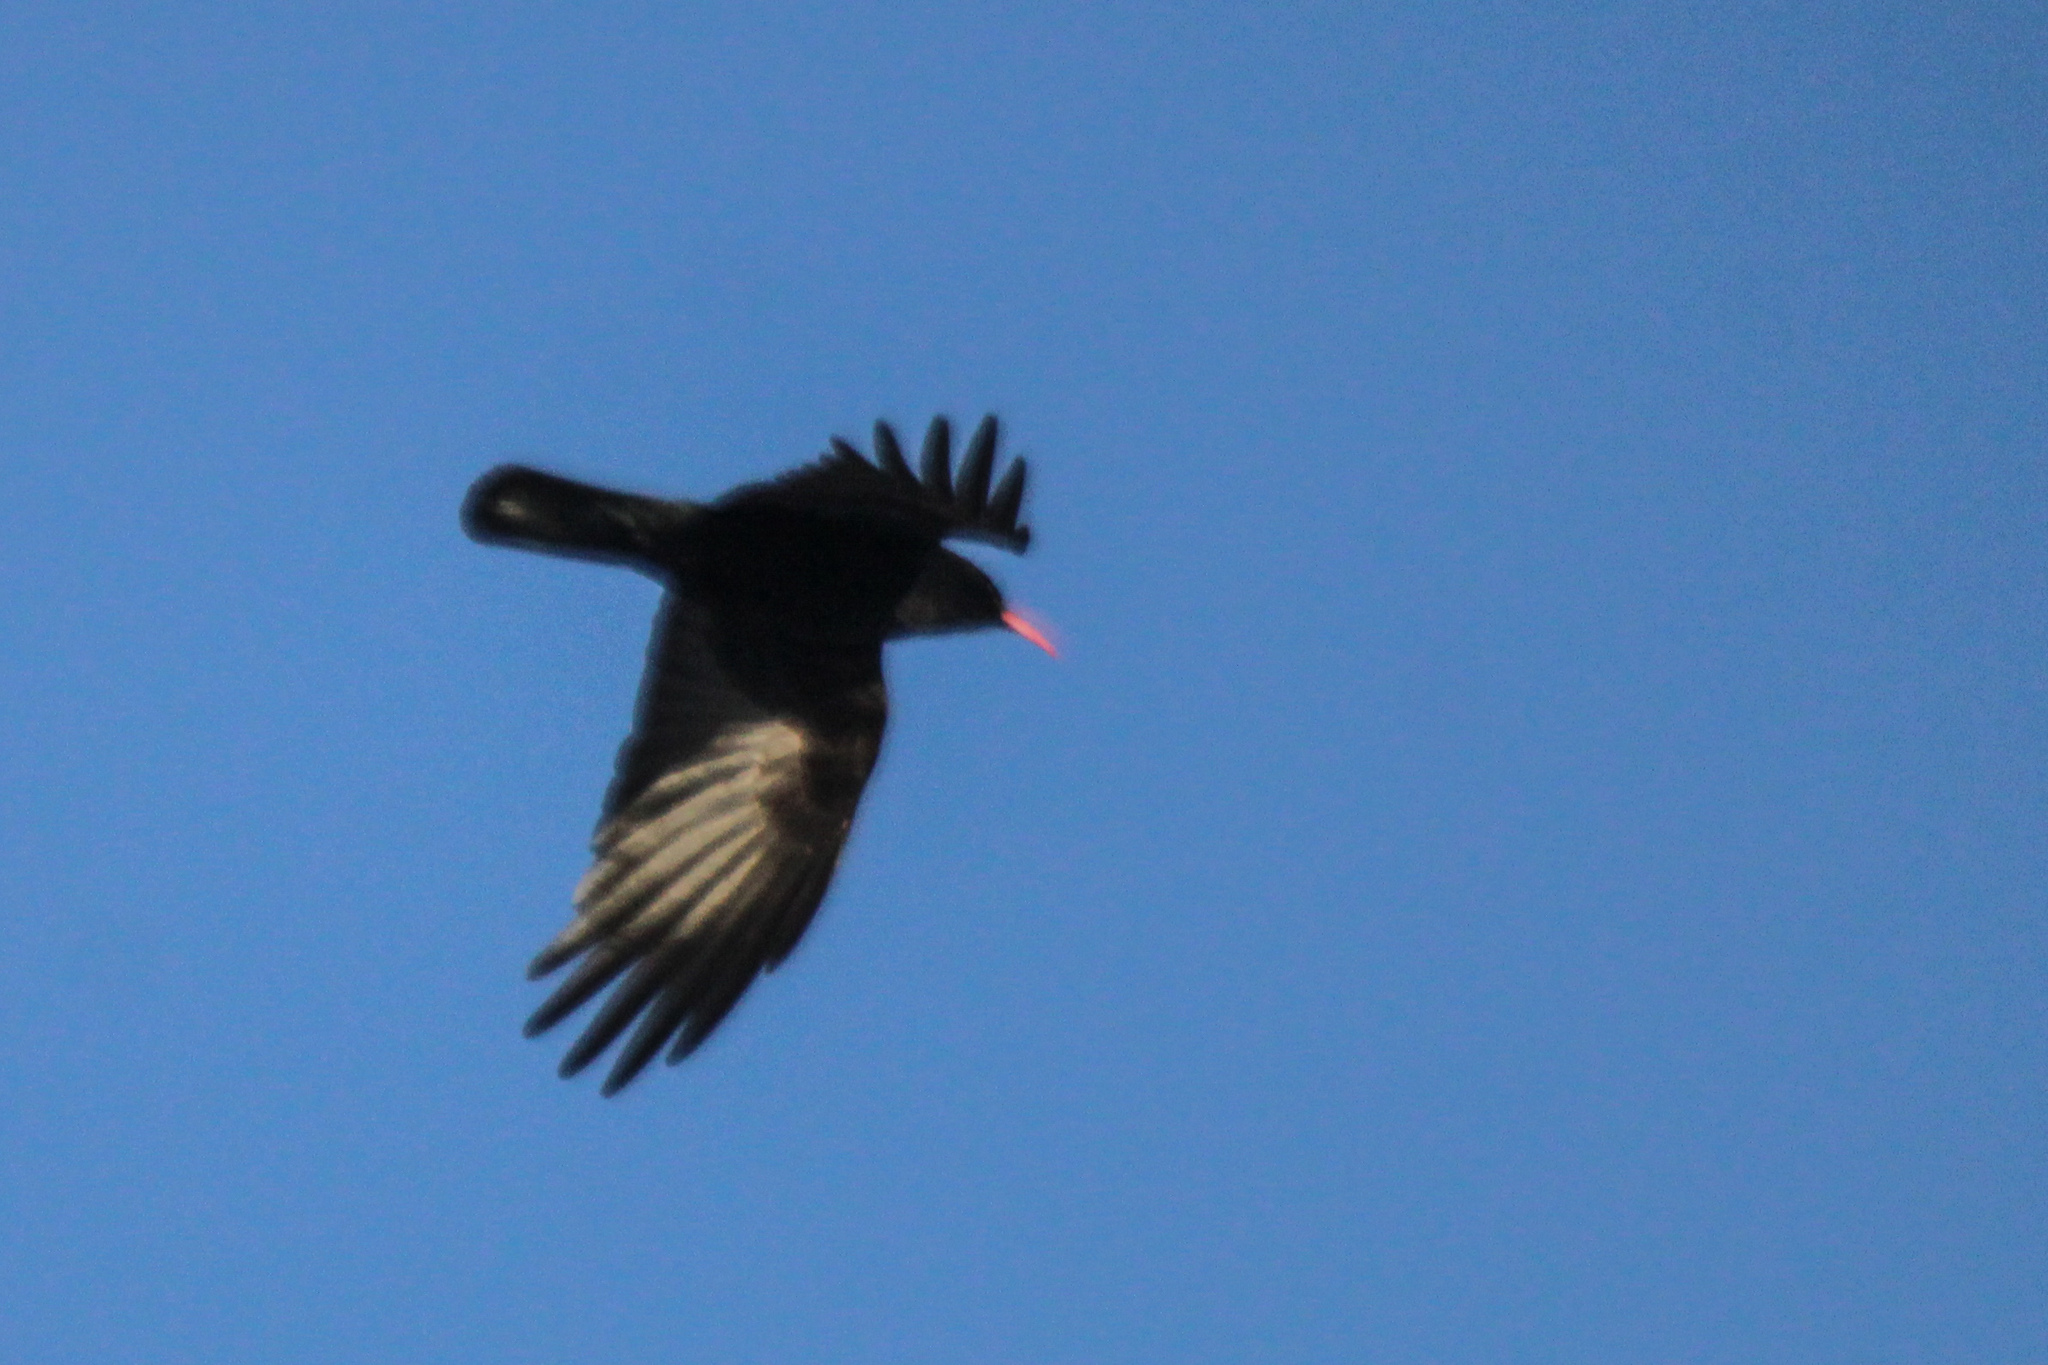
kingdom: Animalia
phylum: Chordata
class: Aves
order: Passeriformes
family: Corvidae
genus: Pyrrhocorax
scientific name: Pyrrhocorax pyrrhocorax
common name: Red-billed chough
